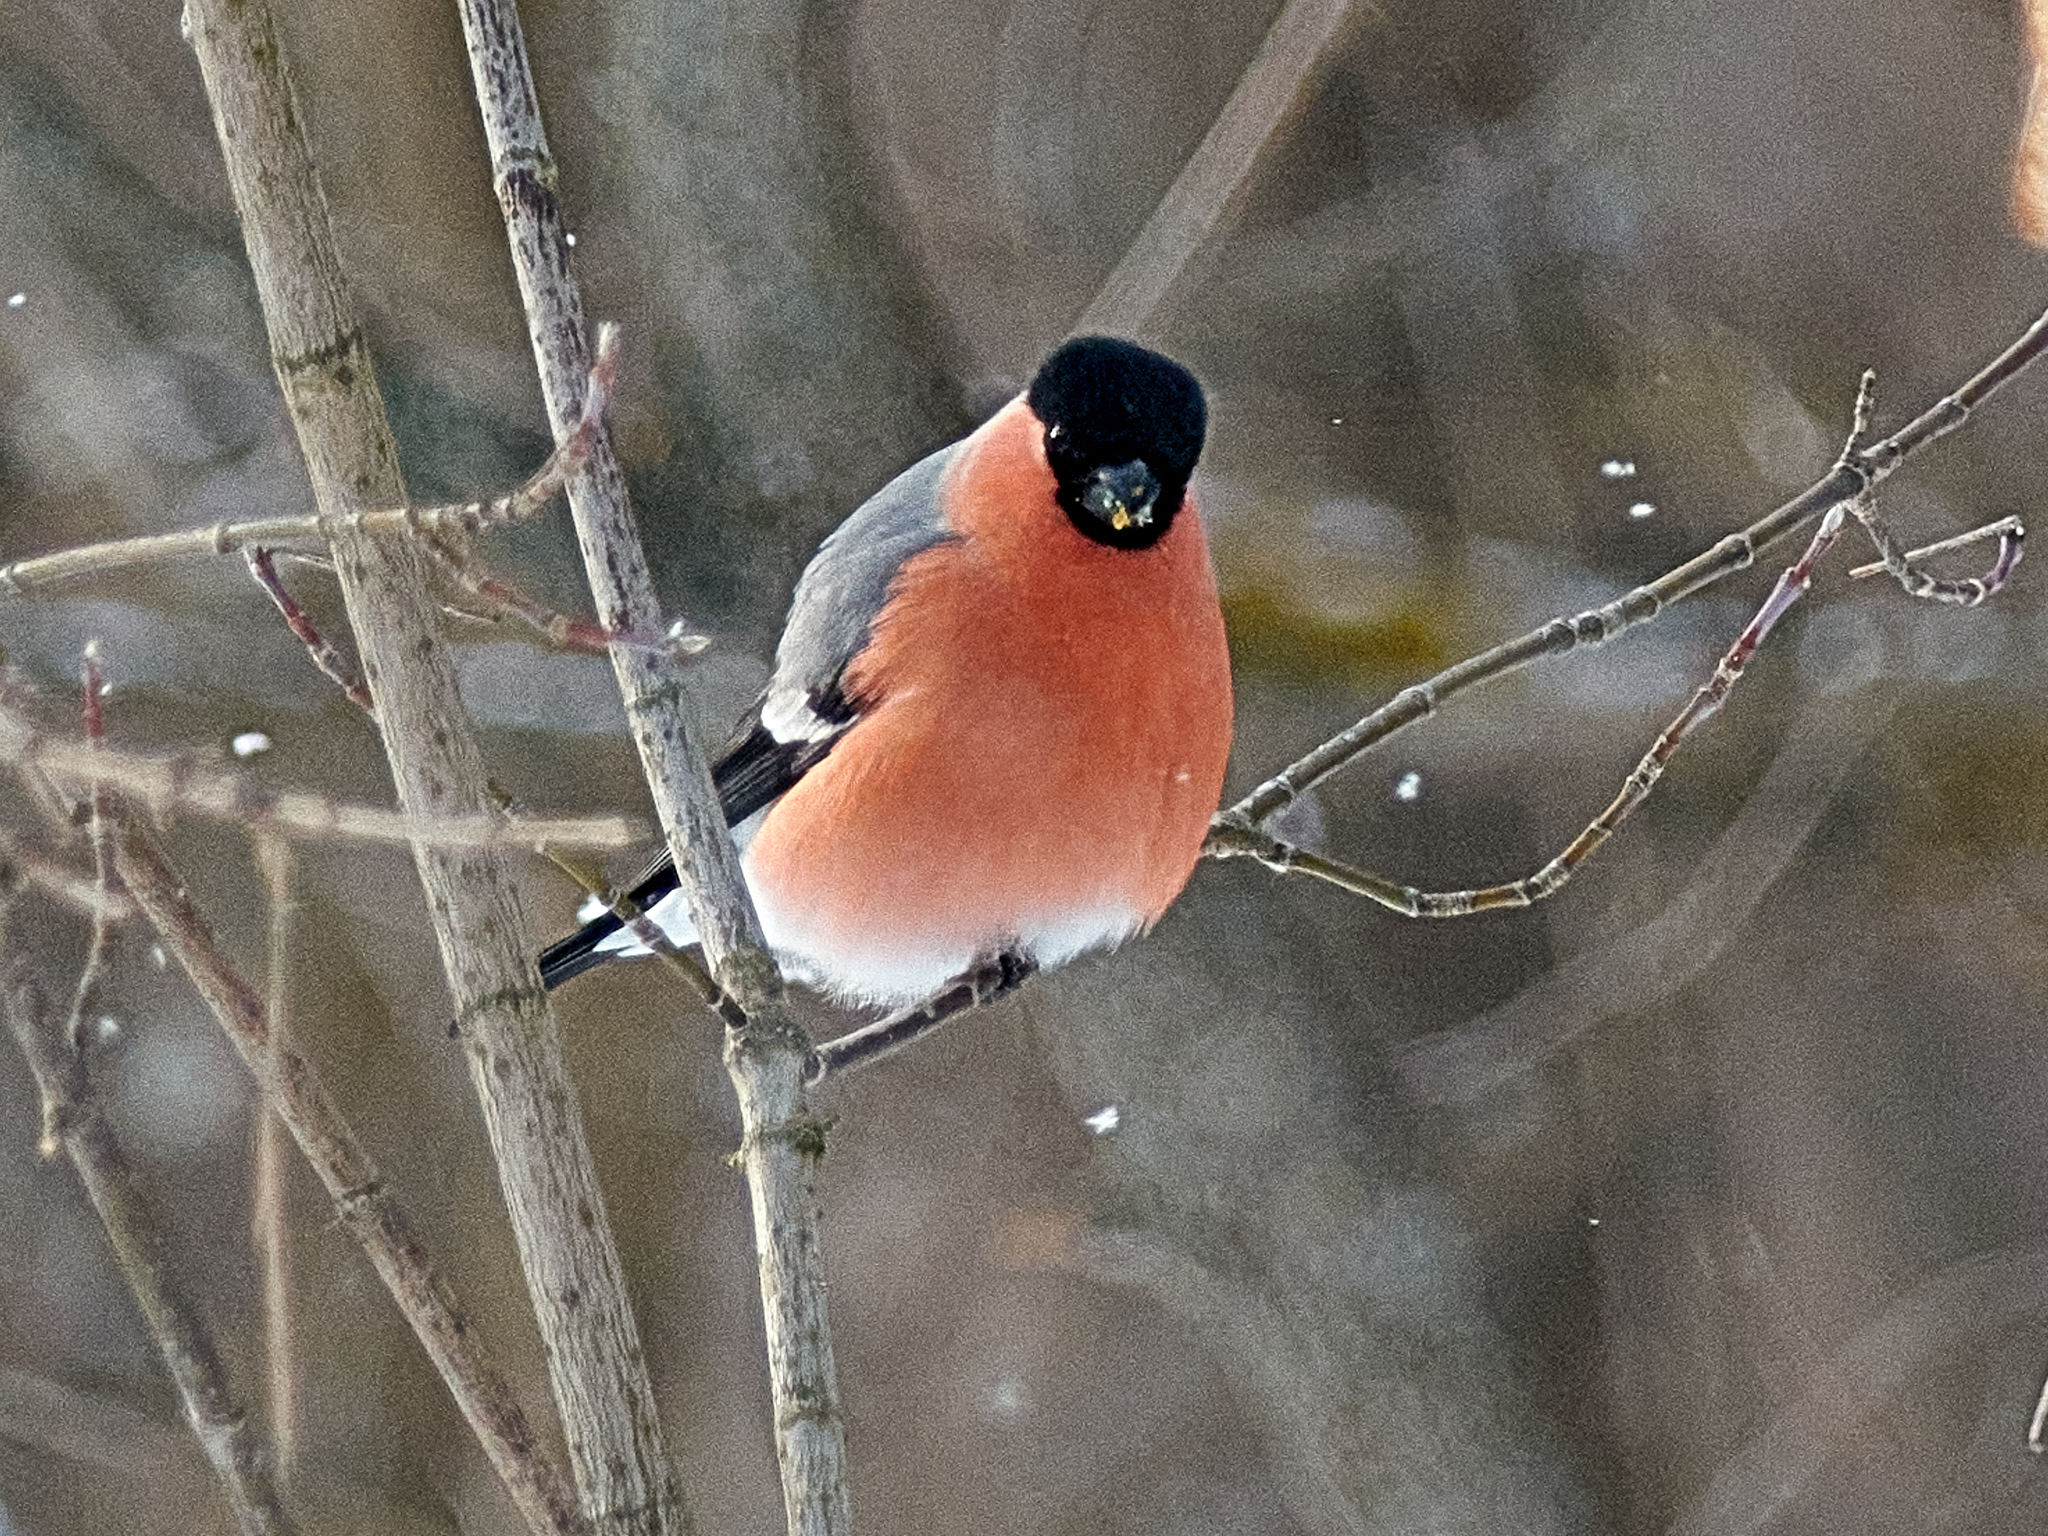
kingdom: Animalia
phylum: Chordata
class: Aves
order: Passeriformes
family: Fringillidae
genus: Pyrrhula
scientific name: Pyrrhula pyrrhula
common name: Eurasian bullfinch
